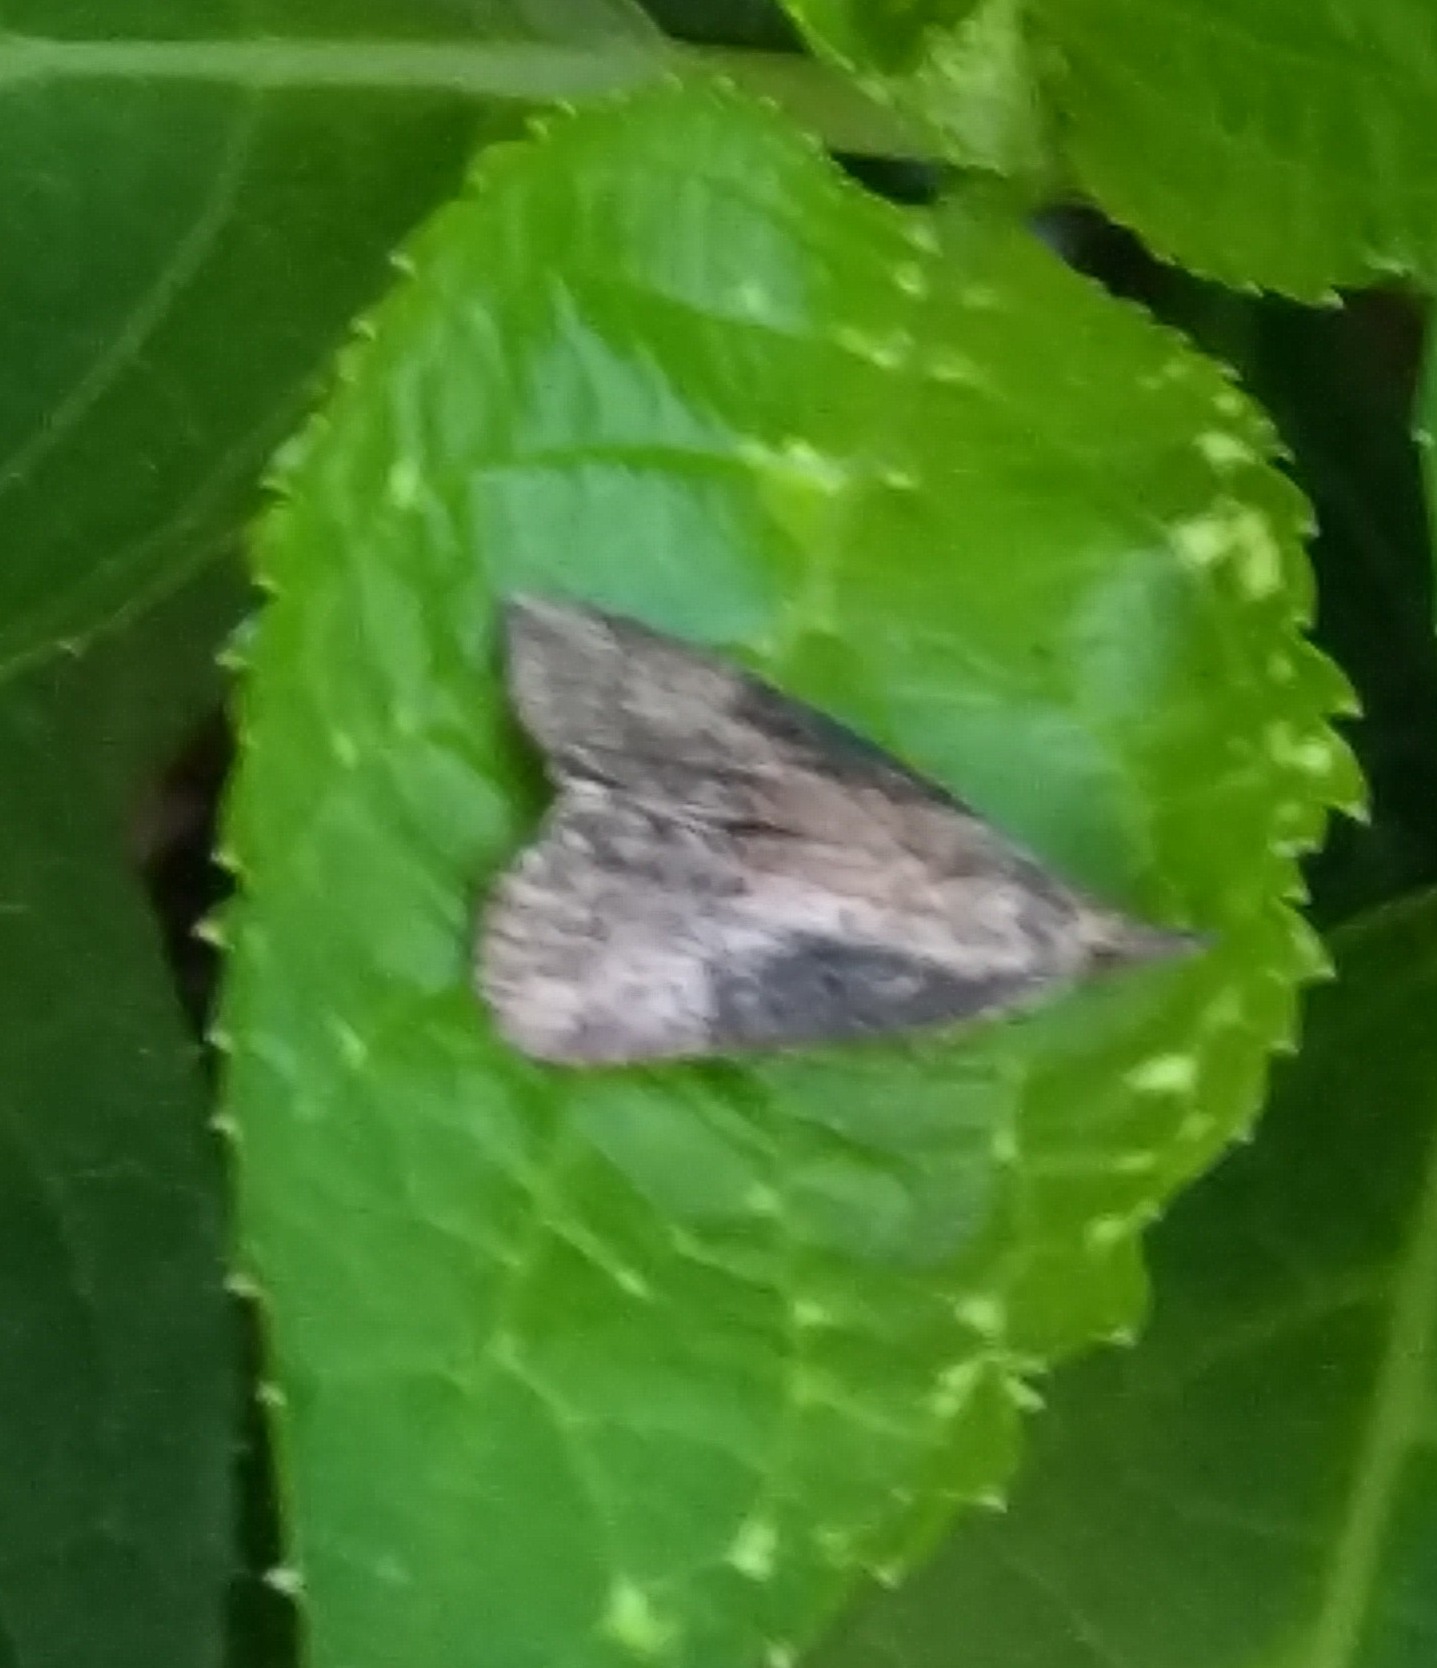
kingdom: Animalia
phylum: Arthropoda
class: Insecta
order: Lepidoptera
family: Erebidae
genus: Hypena
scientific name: Hypena scabra
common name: Green cloverworm
